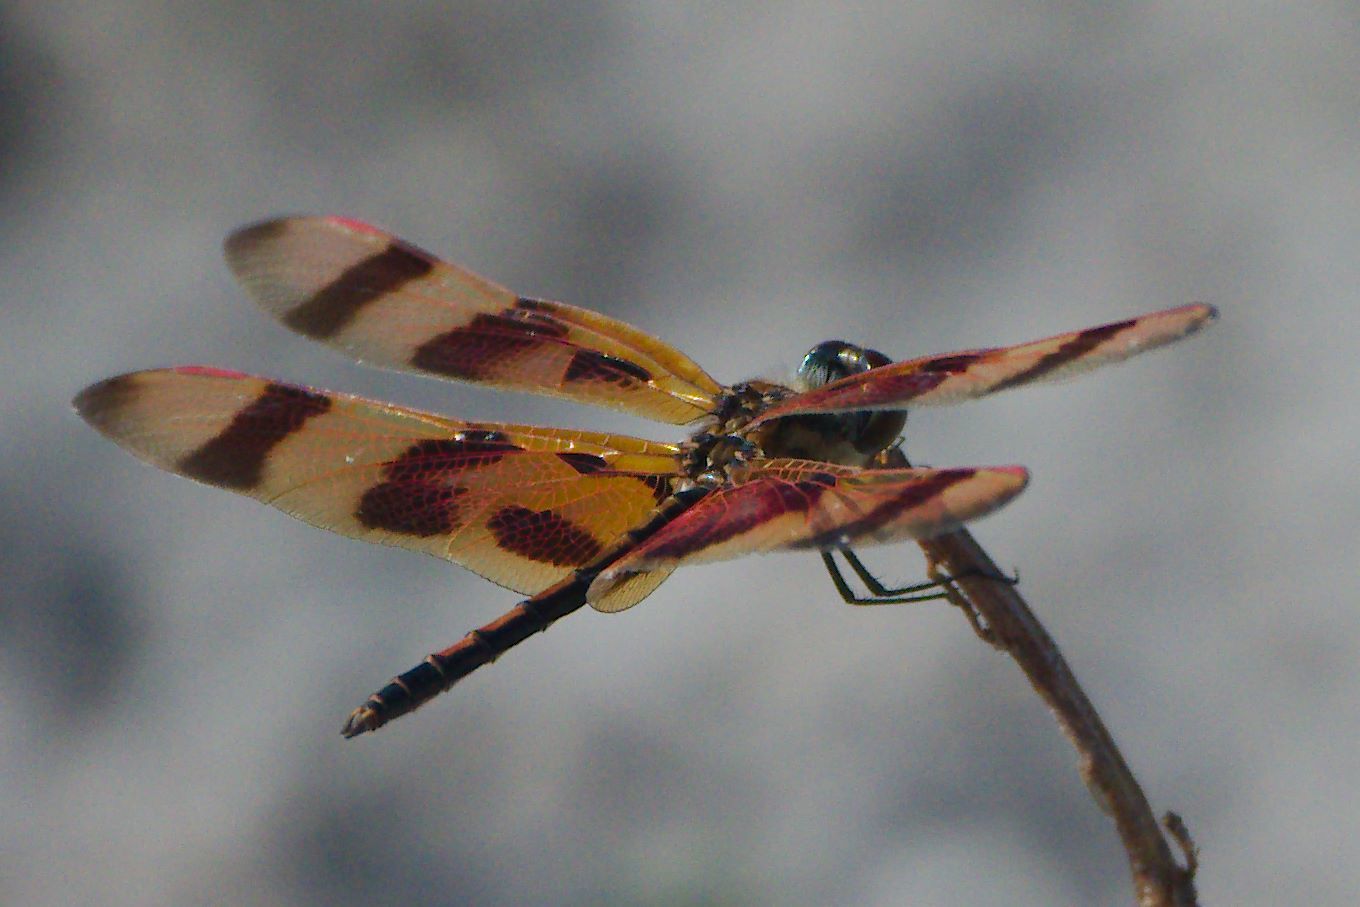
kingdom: Animalia
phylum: Arthropoda
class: Insecta
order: Odonata
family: Libellulidae
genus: Celithemis
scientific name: Celithemis eponina
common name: Halloween pennant
